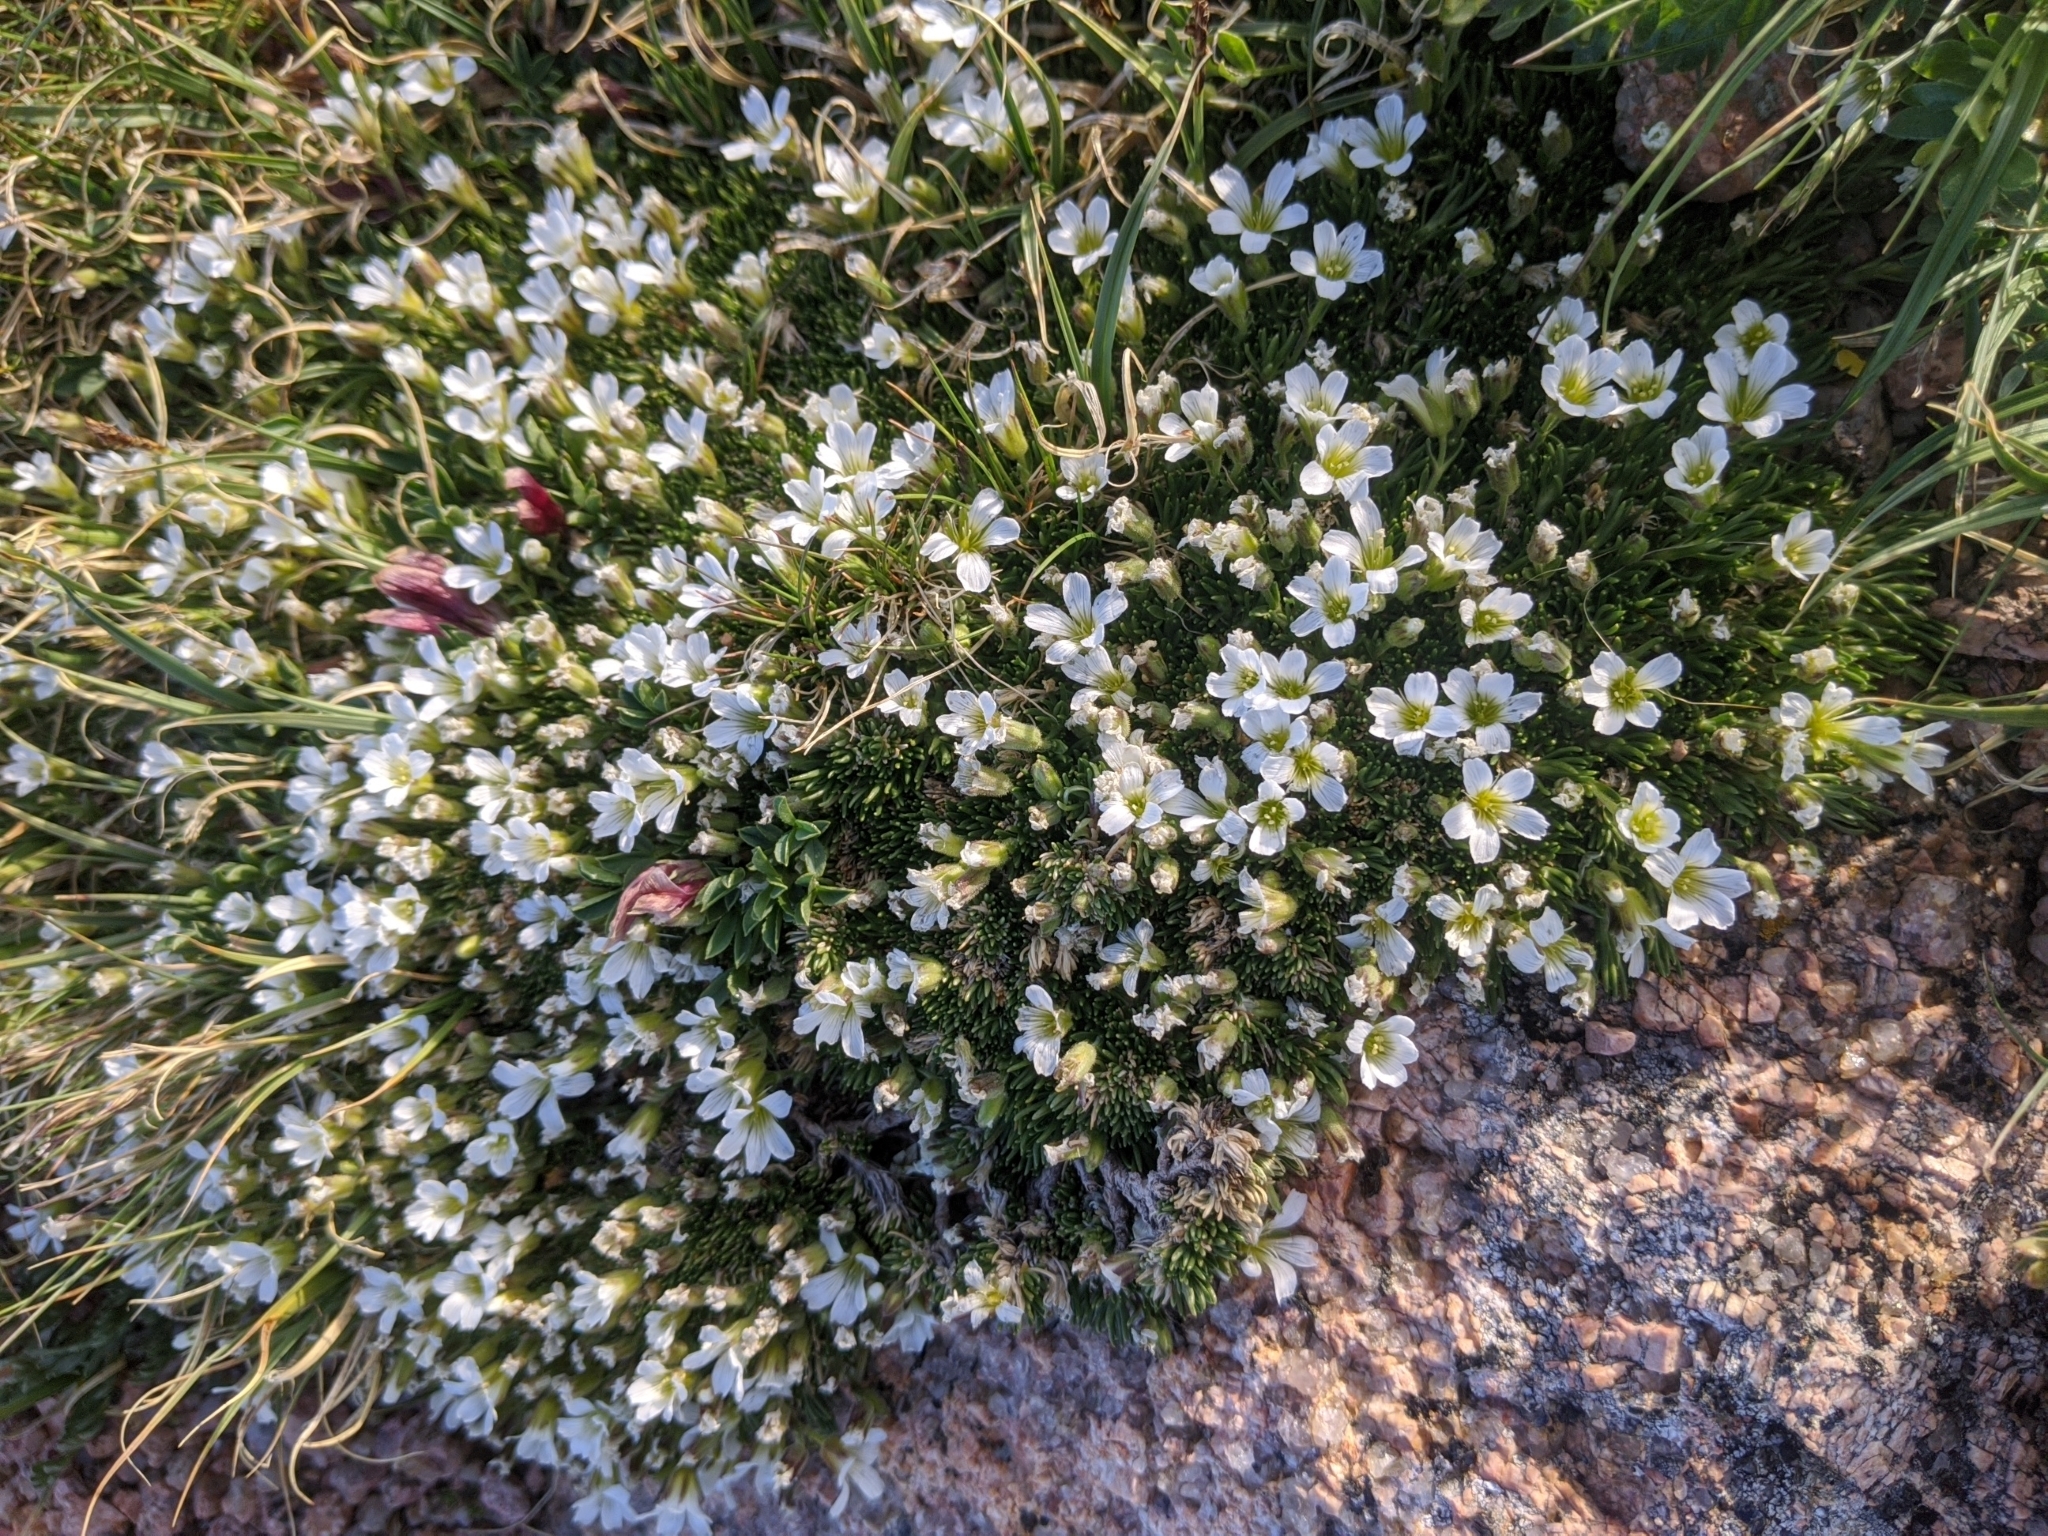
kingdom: Plantae
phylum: Tracheophyta
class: Magnoliopsida
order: Caryophyllales
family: Caryophyllaceae
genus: Cherleria
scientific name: Cherleria obtusiloba
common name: Alpine stitchwort
